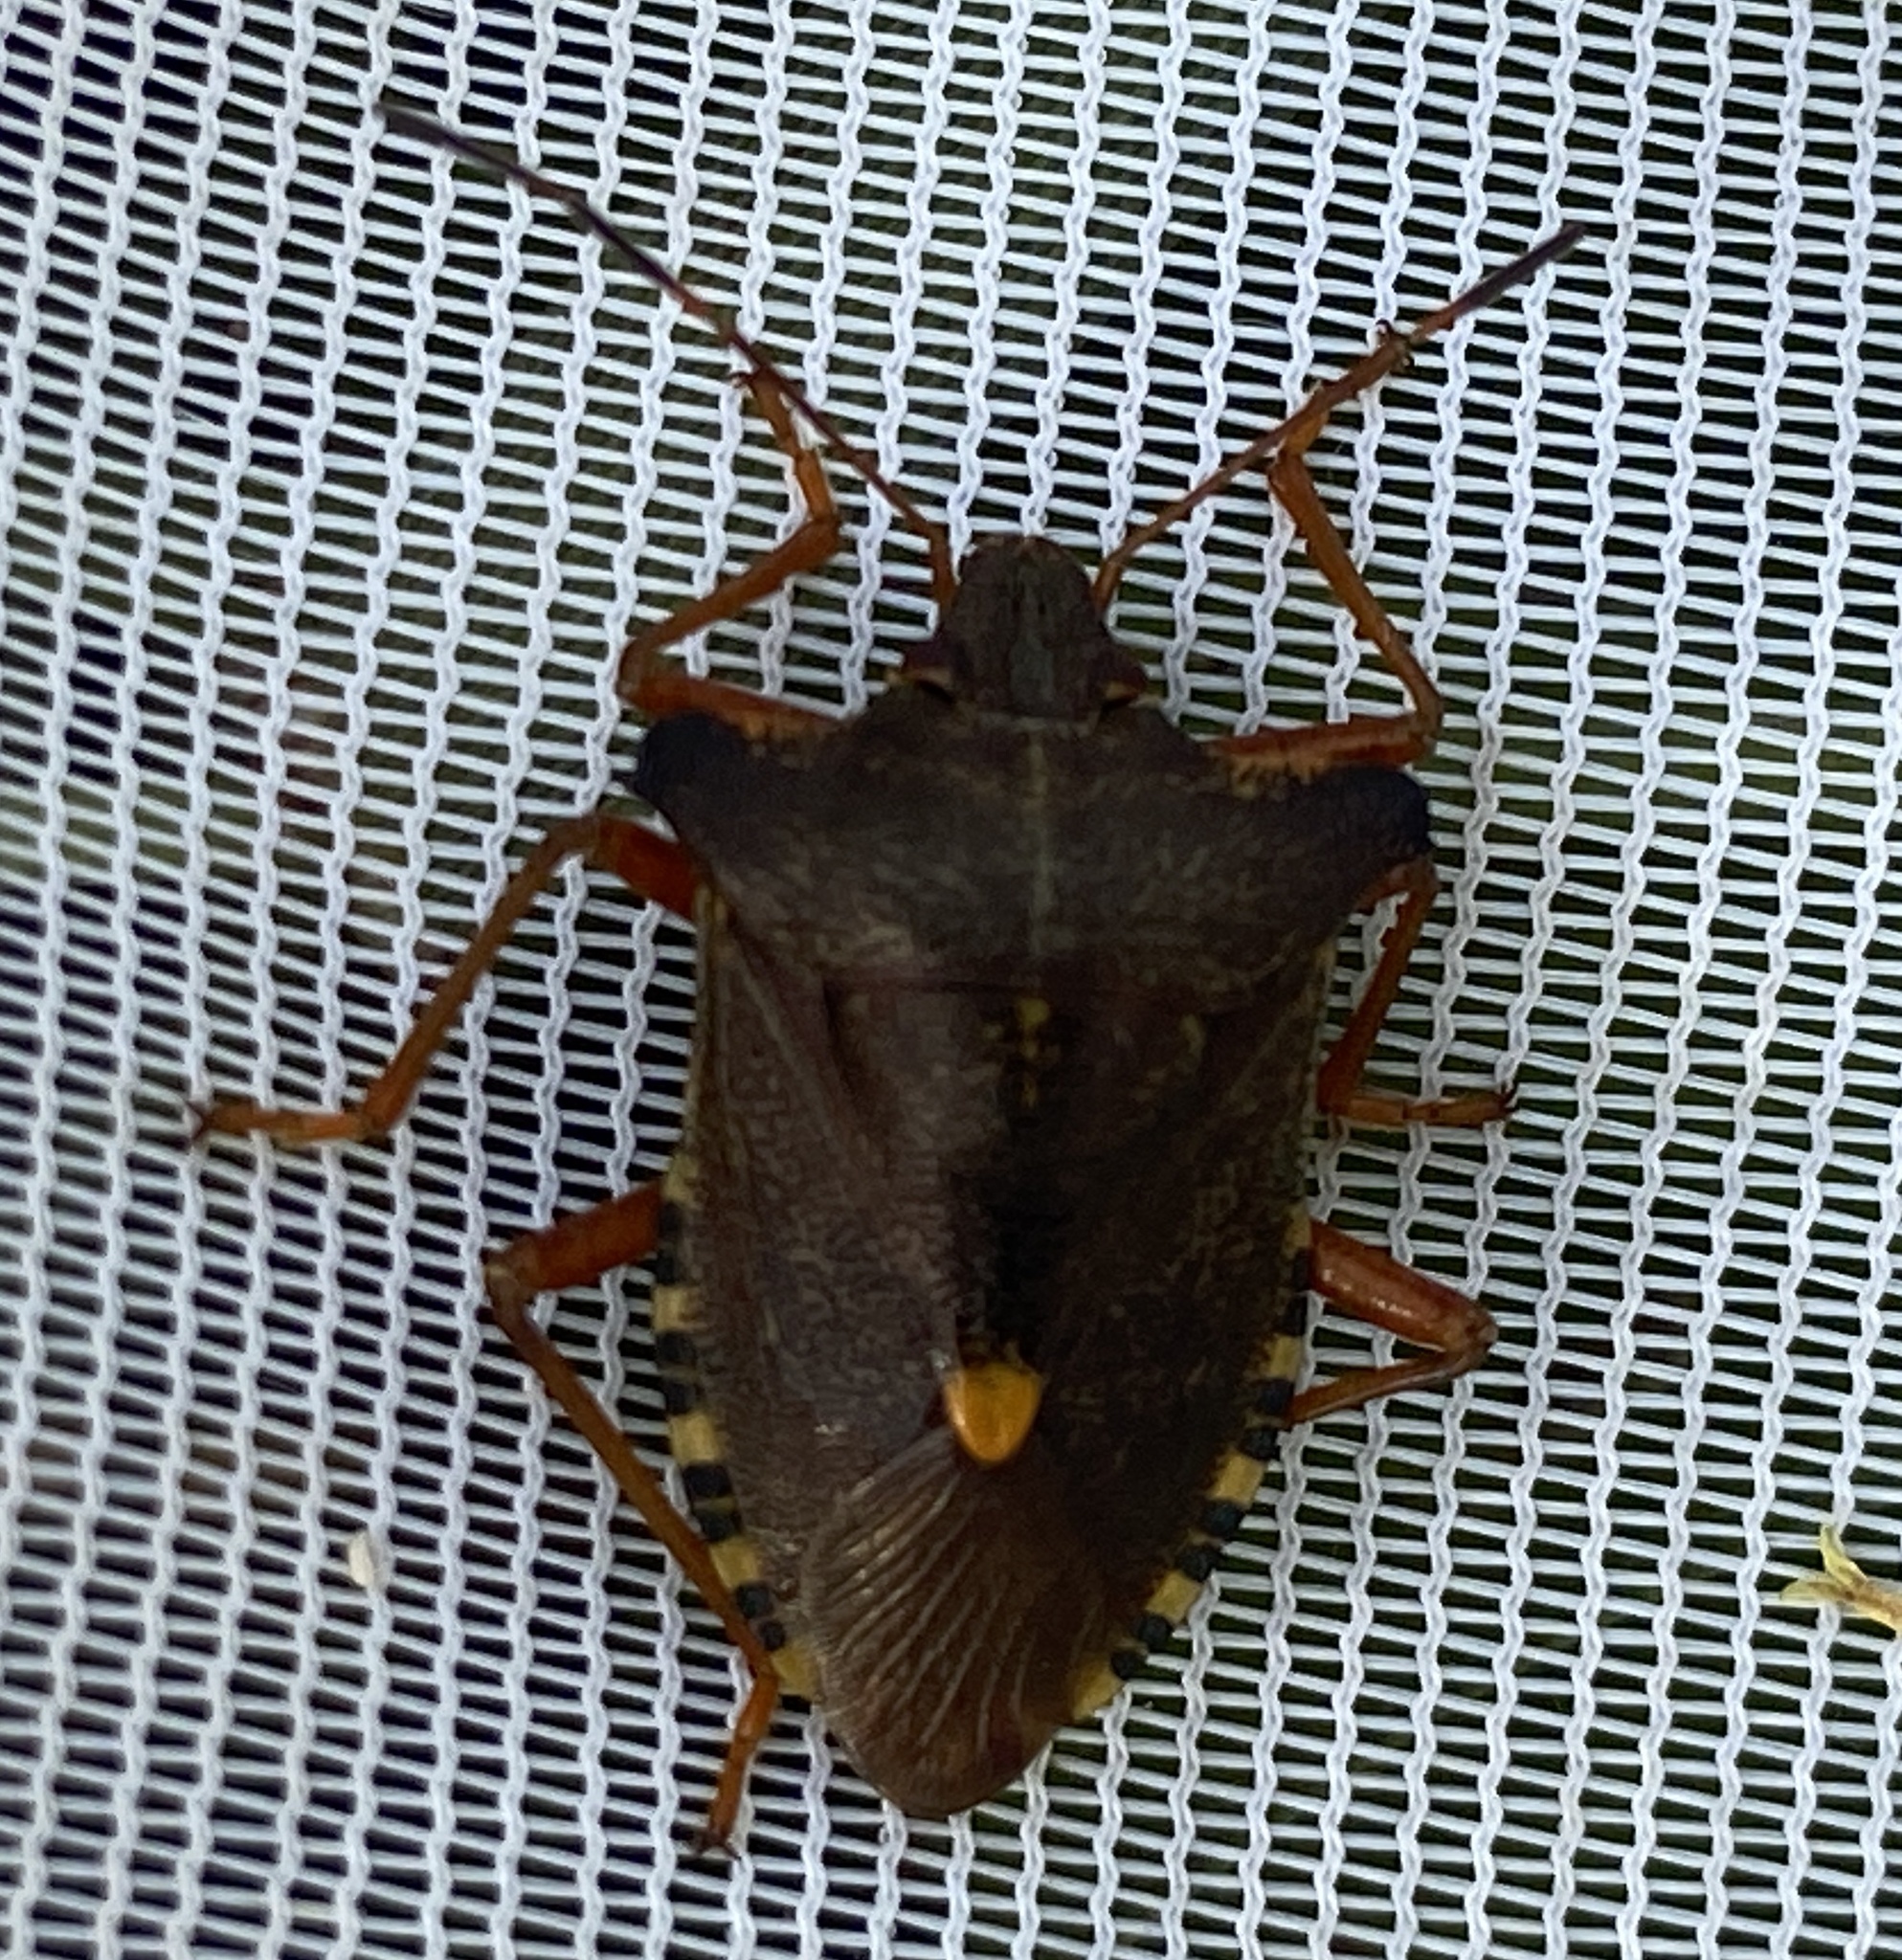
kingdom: Animalia
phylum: Arthropoda
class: Insecta
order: Hemiptera
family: Pentatomidae
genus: Pentatoma
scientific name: Pentatoma rufipes
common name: Forest bug
